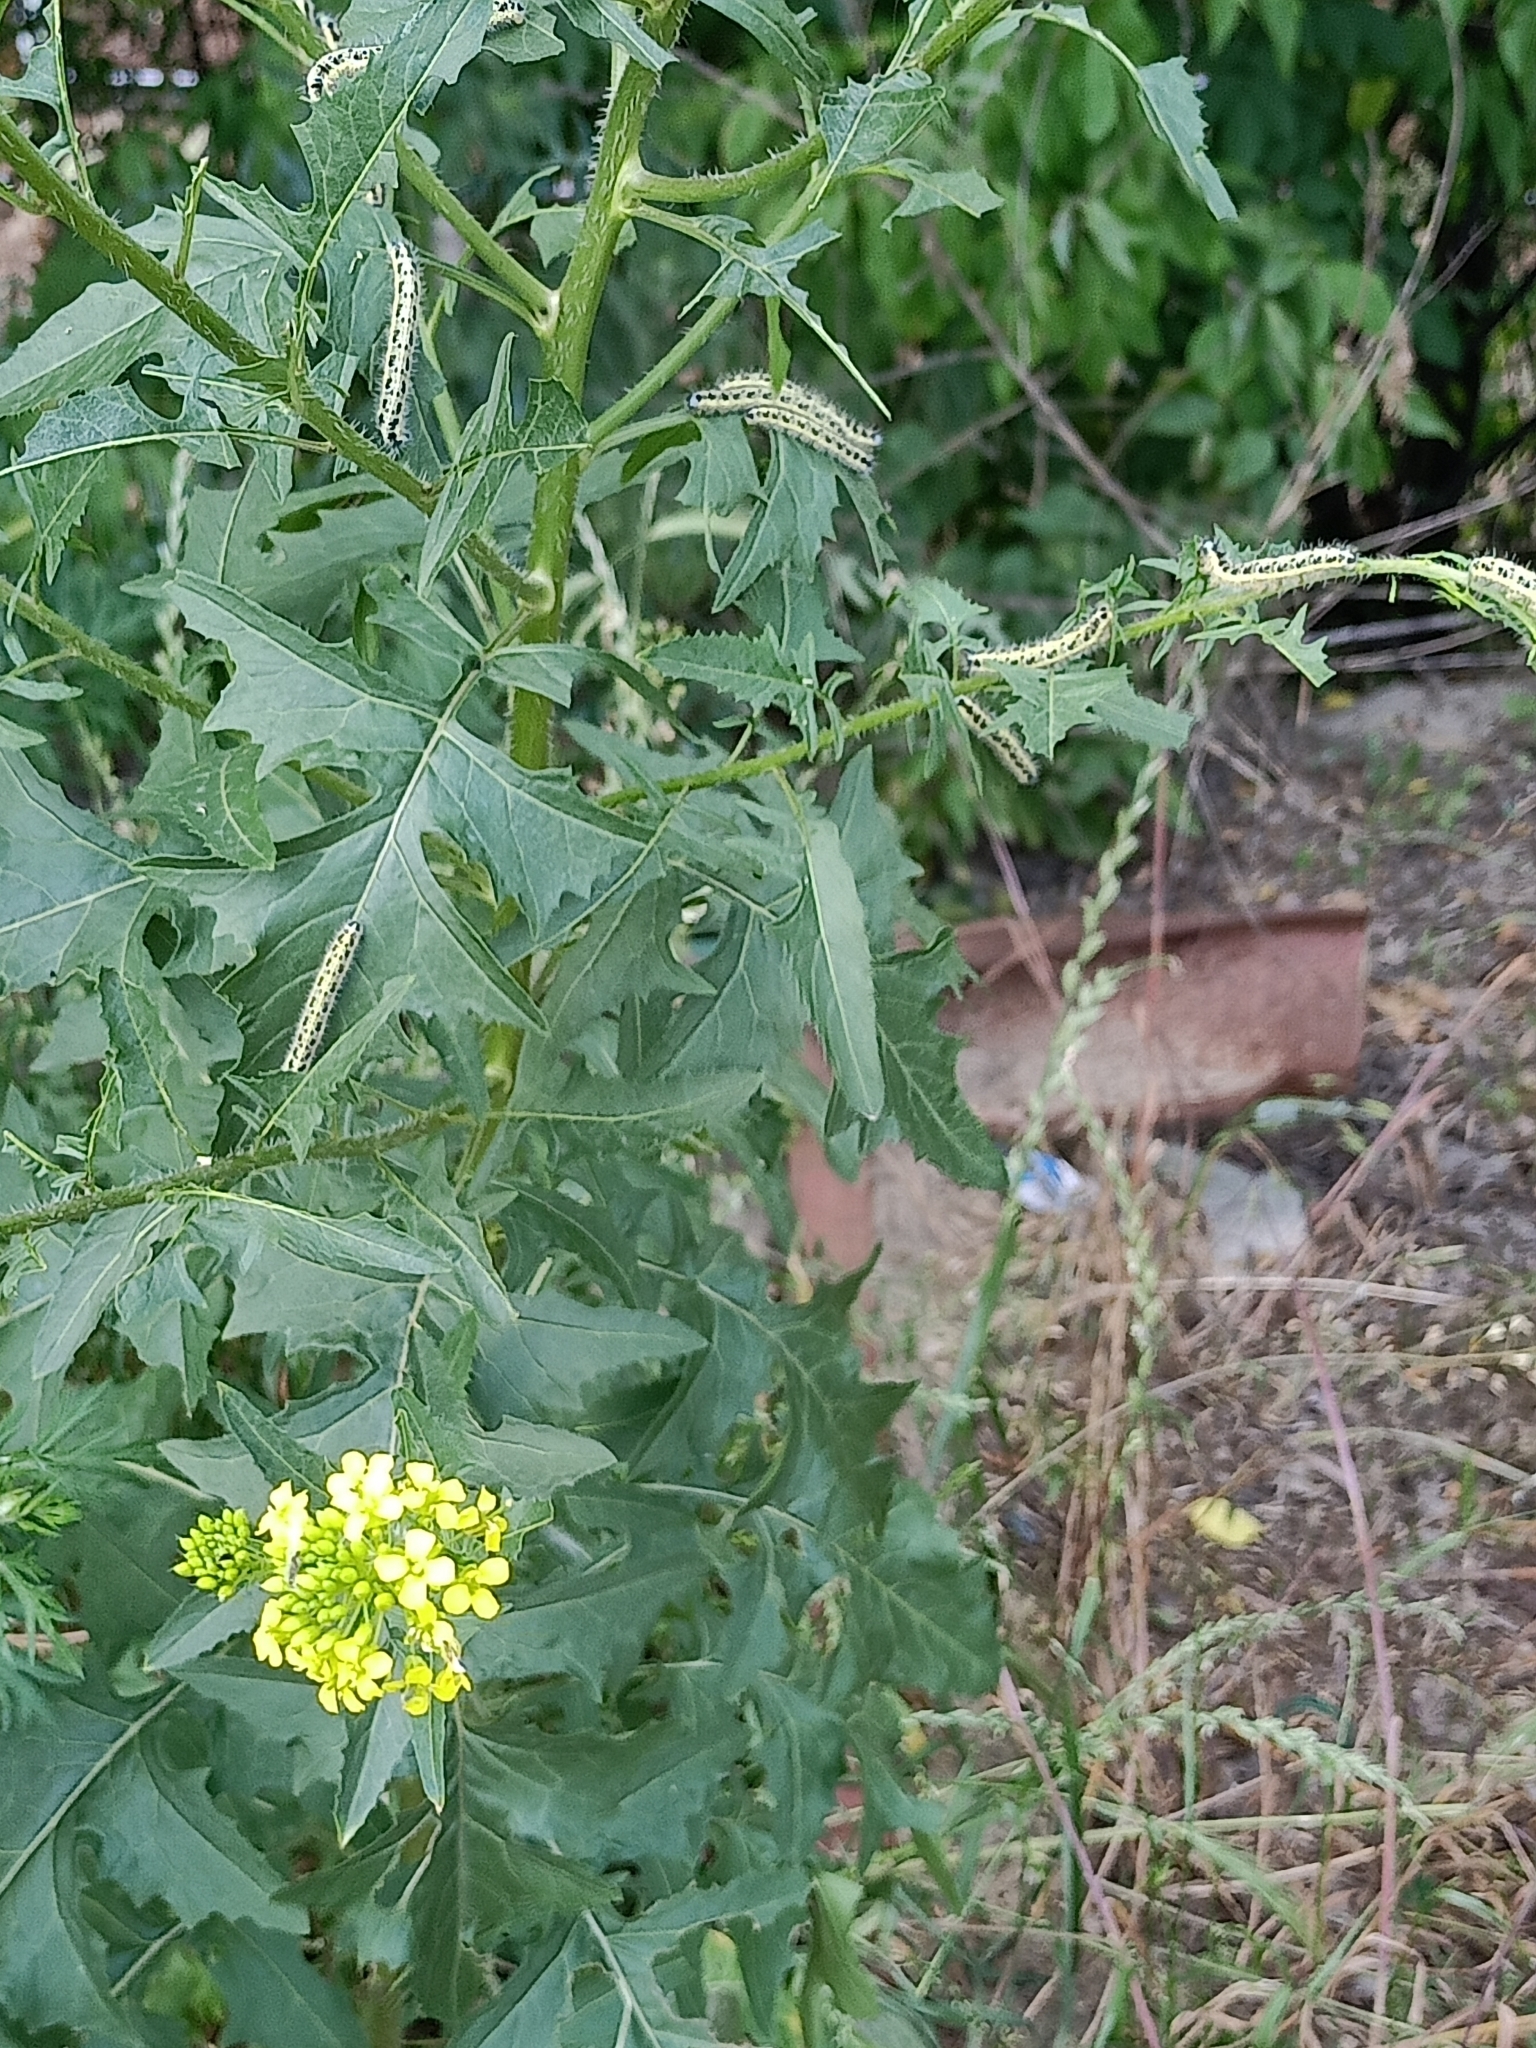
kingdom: Plantae
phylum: Tracheophyta
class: Magnoliopsida
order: Brassicales
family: Brassicaceae
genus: Sisymbrium
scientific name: Sisymbrium loeselii
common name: False london-rocket
